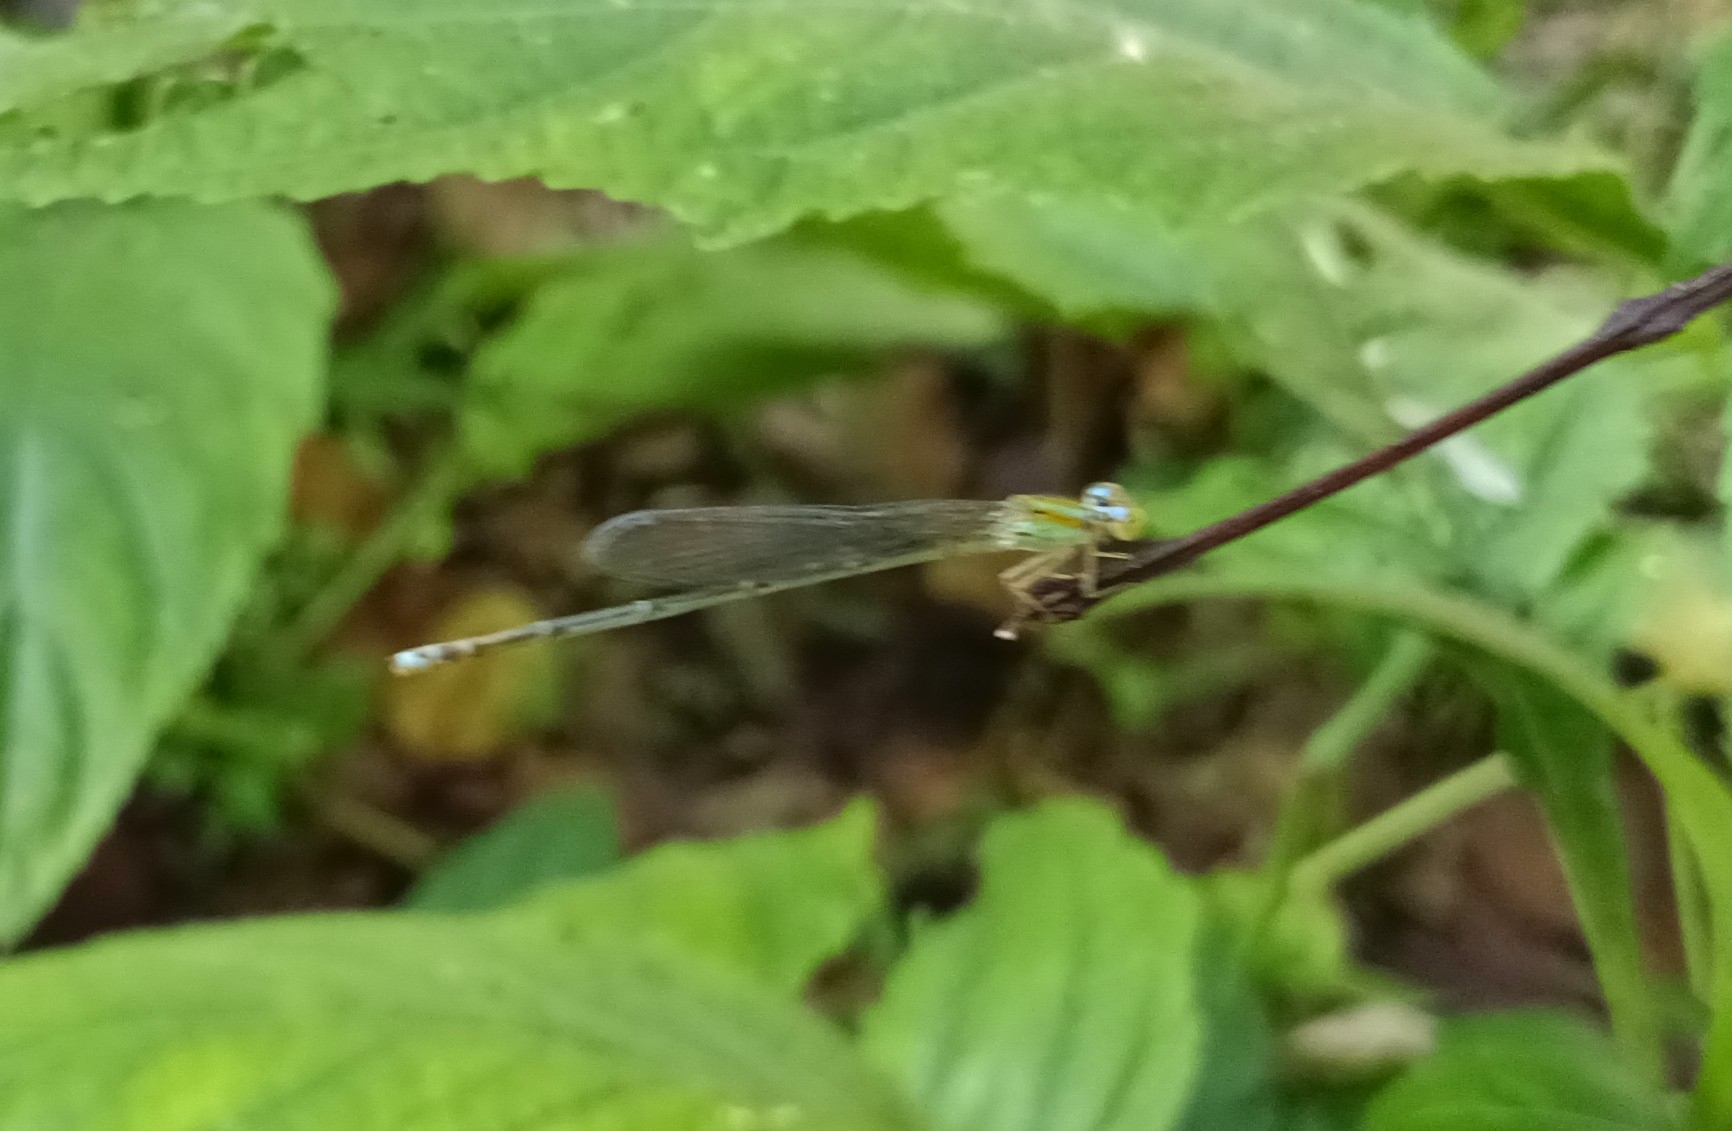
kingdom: Animalia
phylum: Arthropoda
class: Insecta
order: Odonata
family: Coenagrionidae
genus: Pseudagrion
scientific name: Pseudagrion microcephalum
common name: Blue riverdamsel
